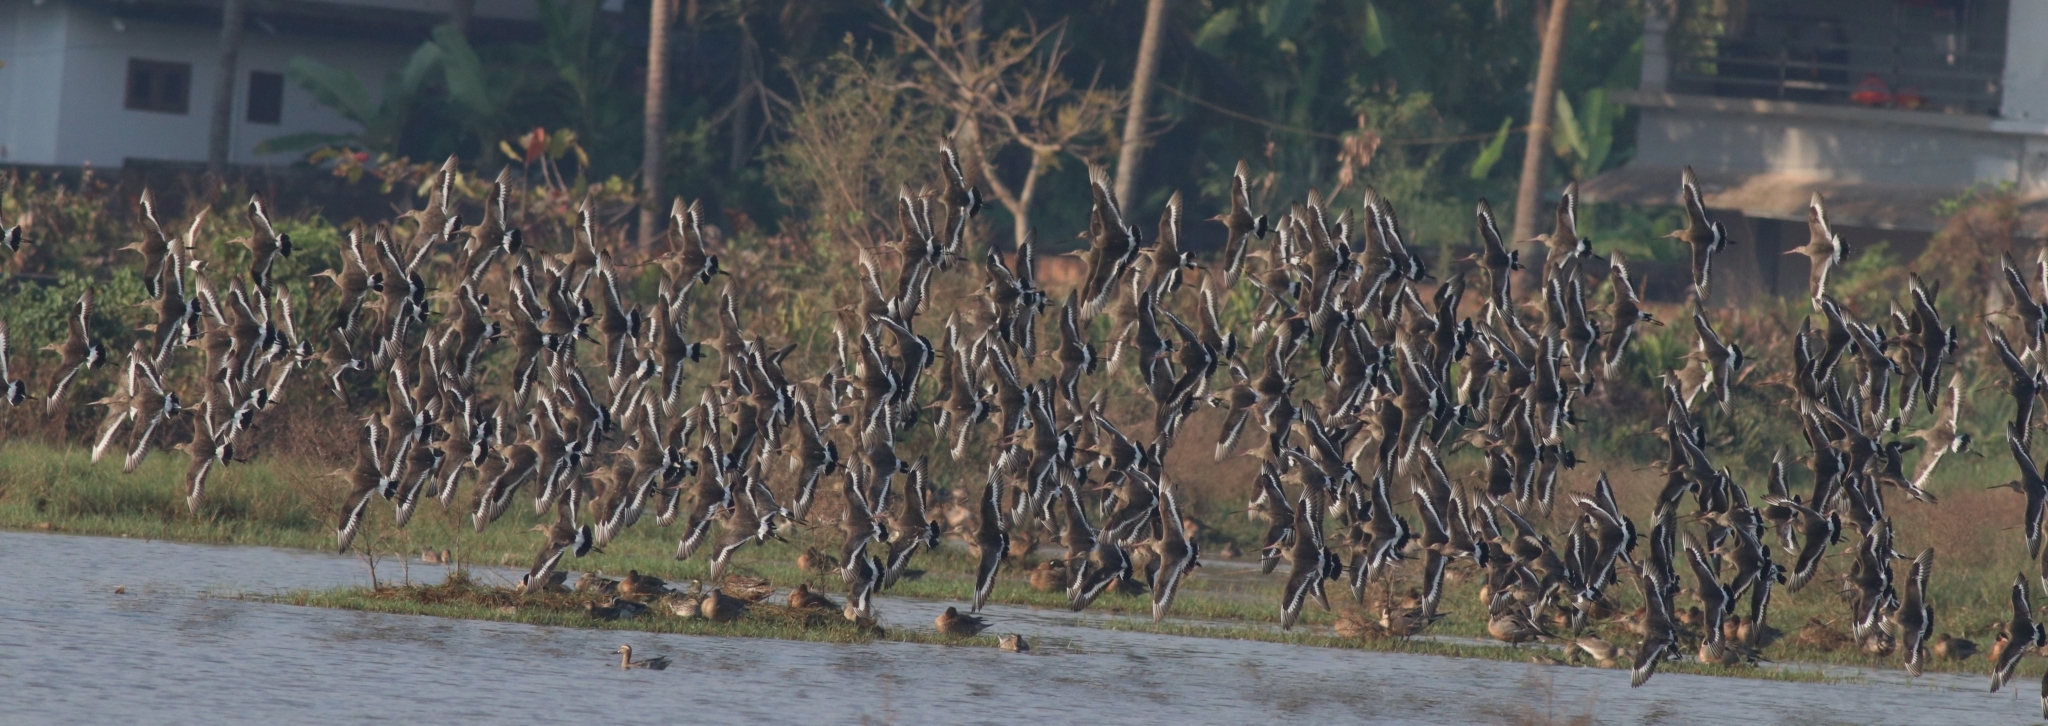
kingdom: Animalia
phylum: Chordata
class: Aves
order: Charadriiformes
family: Scolopacidae
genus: Limosa
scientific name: Limosa limosa
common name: Black-tailed godwit
